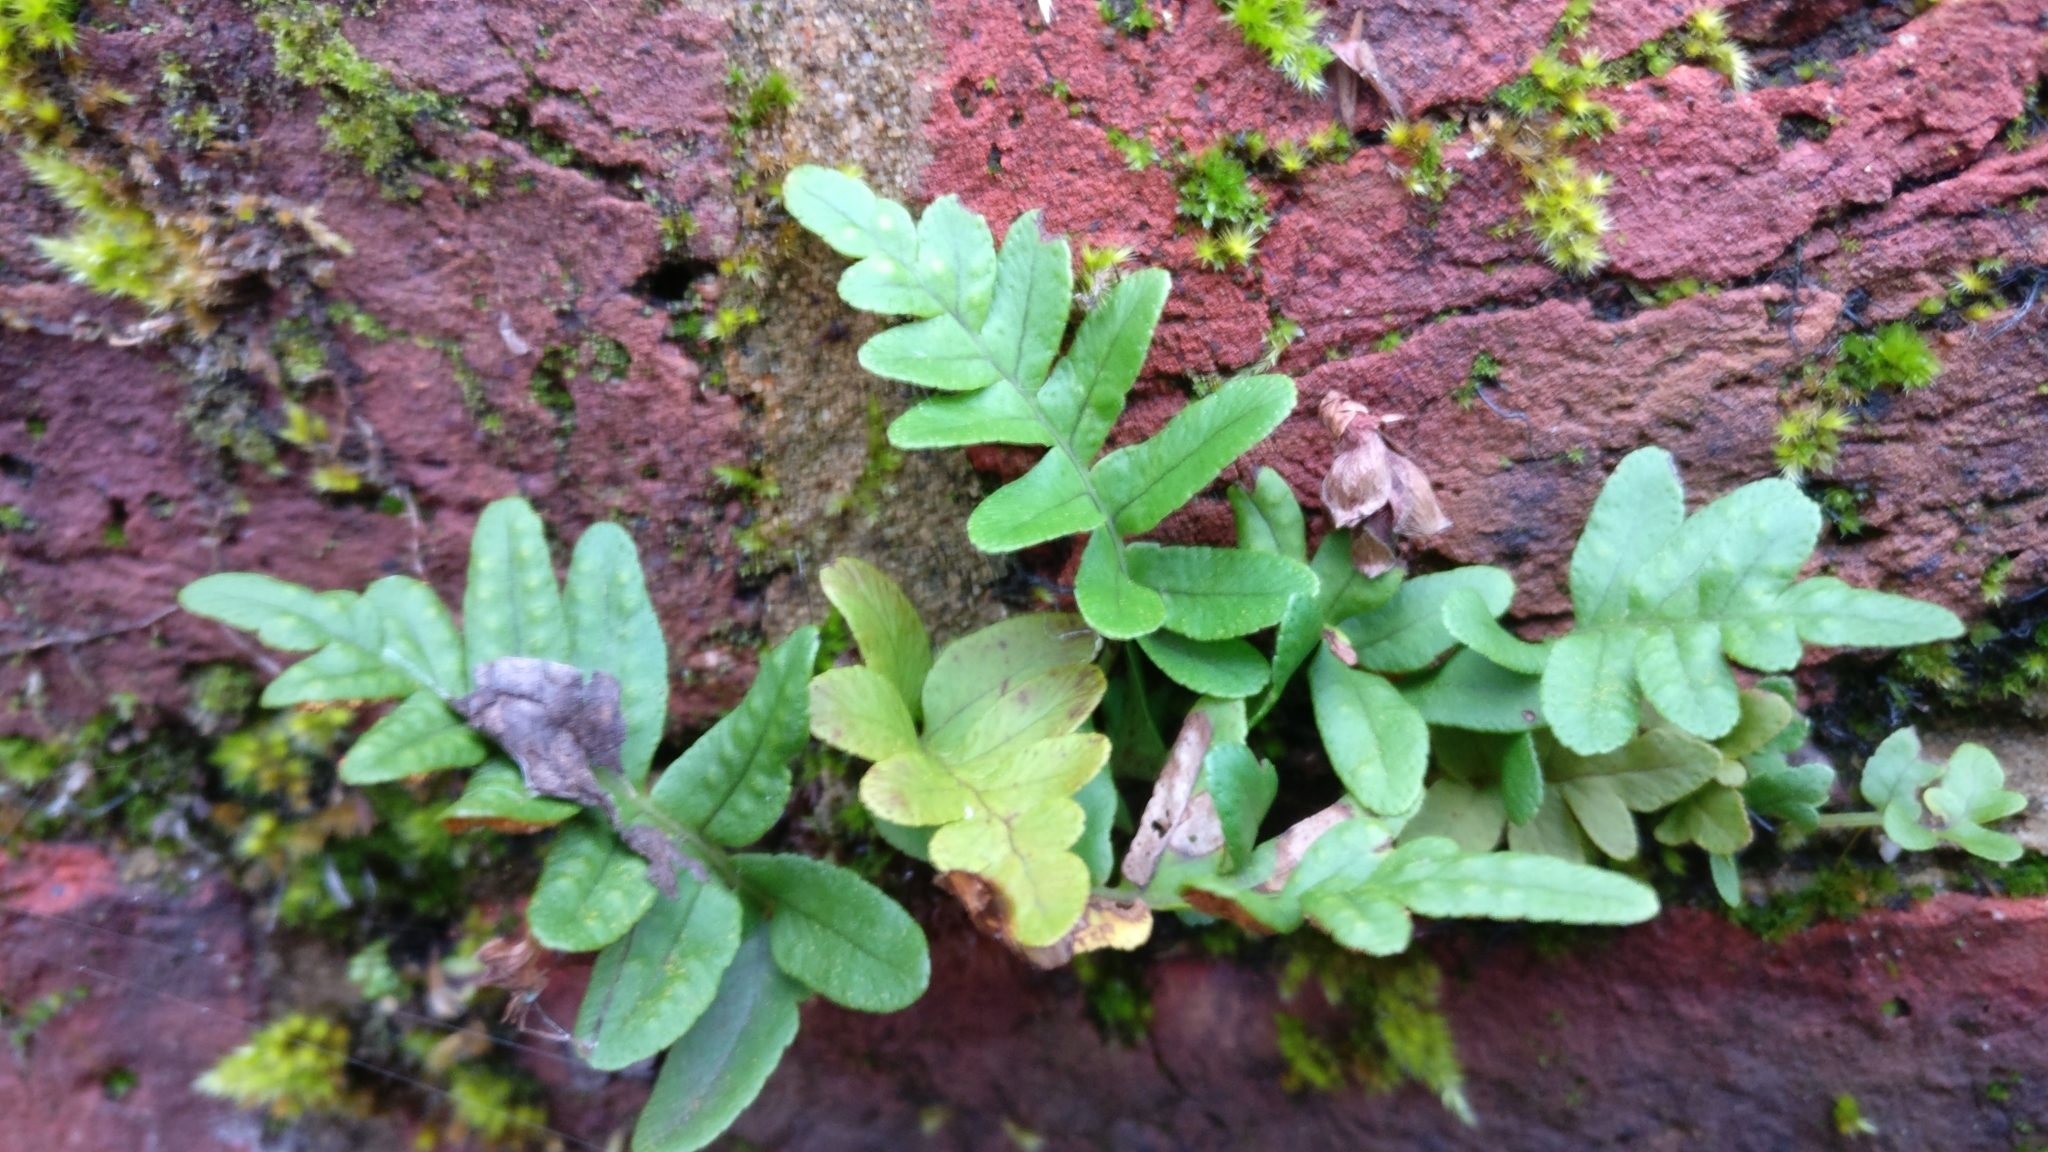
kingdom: Plantae
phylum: Tracheophyta
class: Polypodiopsida
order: Polypodiales
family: Polypodiaceae
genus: Polypodium
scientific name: Polypodium
